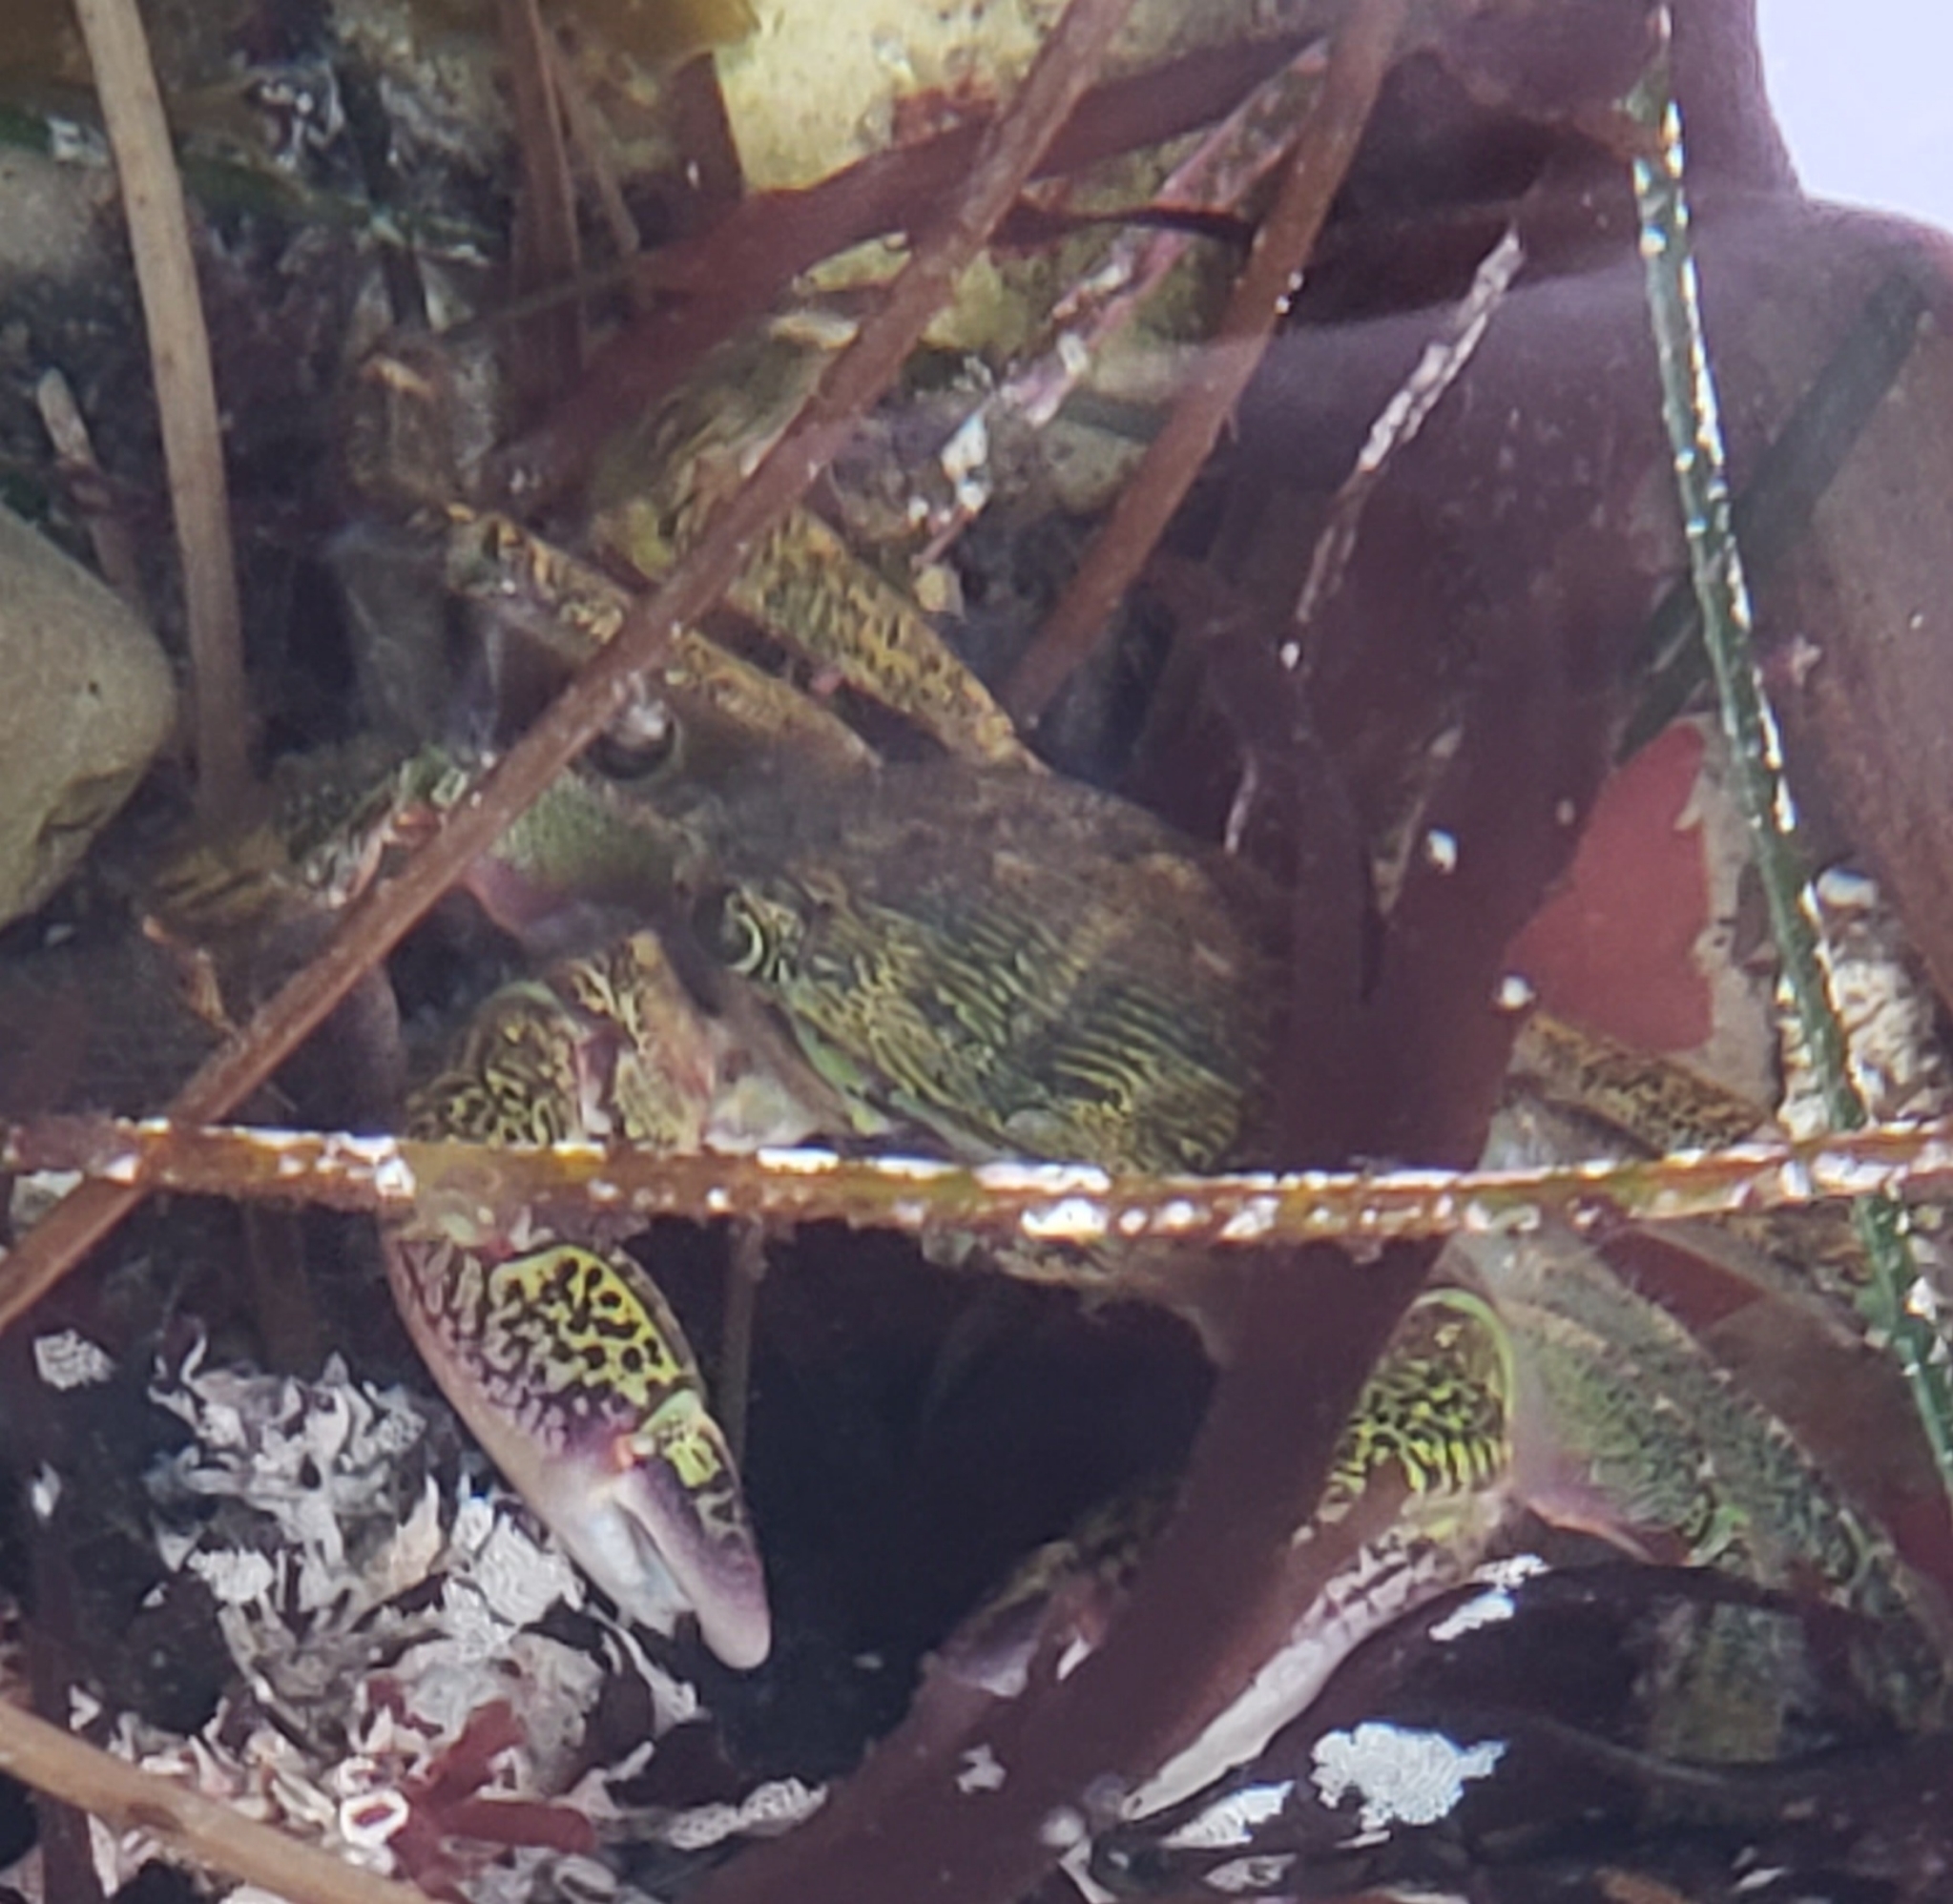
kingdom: Animalia
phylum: Arthropoda
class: Malacostraca
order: Decapoda
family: Grapsidae
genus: Pachygrapsus
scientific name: Pachygrapsus crassipes
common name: Striped shore crab
